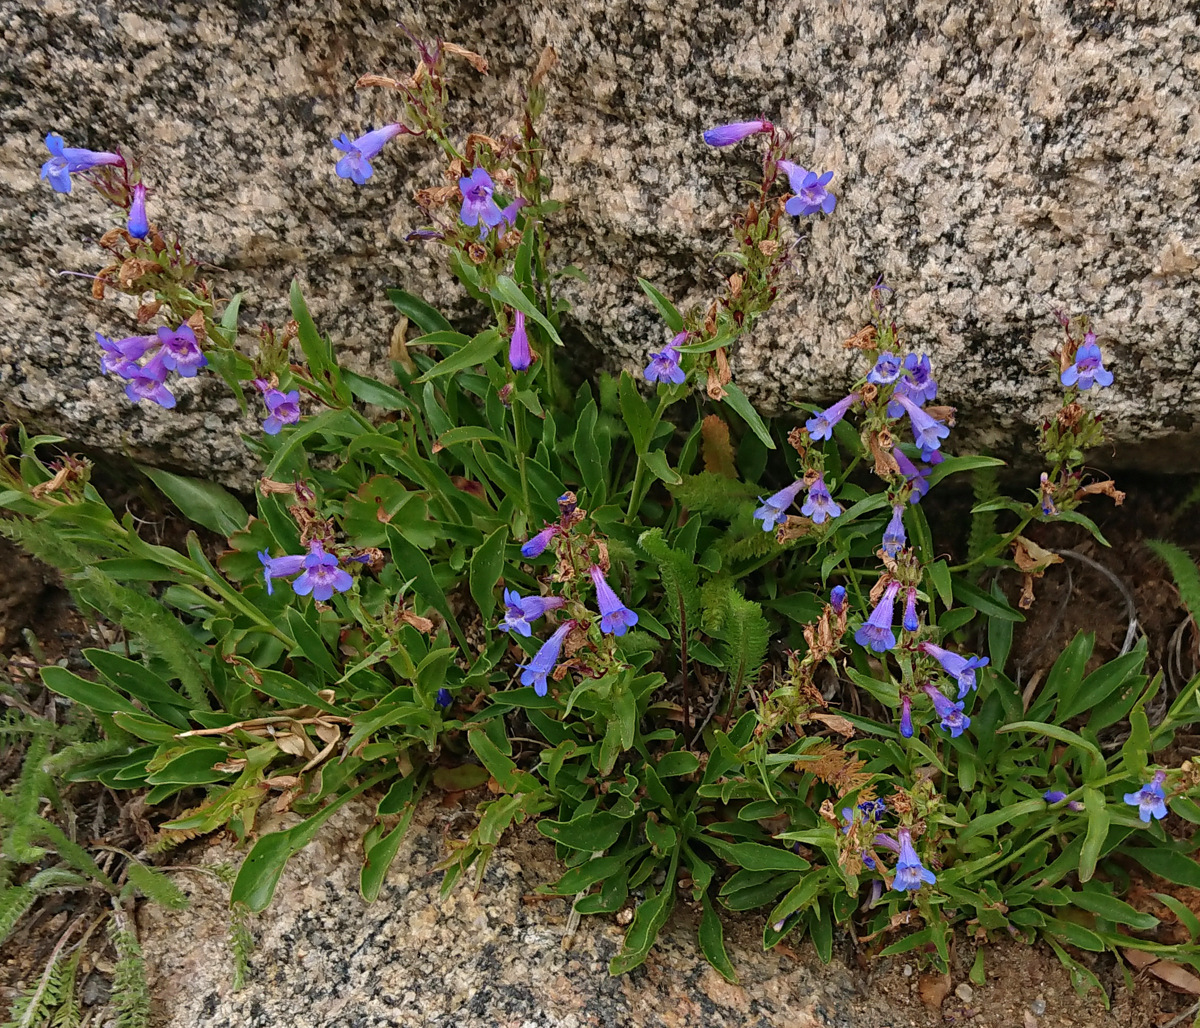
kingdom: Plantae
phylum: Tracheophyta
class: Magnoliopsida
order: Lamiales
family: Plantaginaceae
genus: Penstemon
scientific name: Penstemon virens
